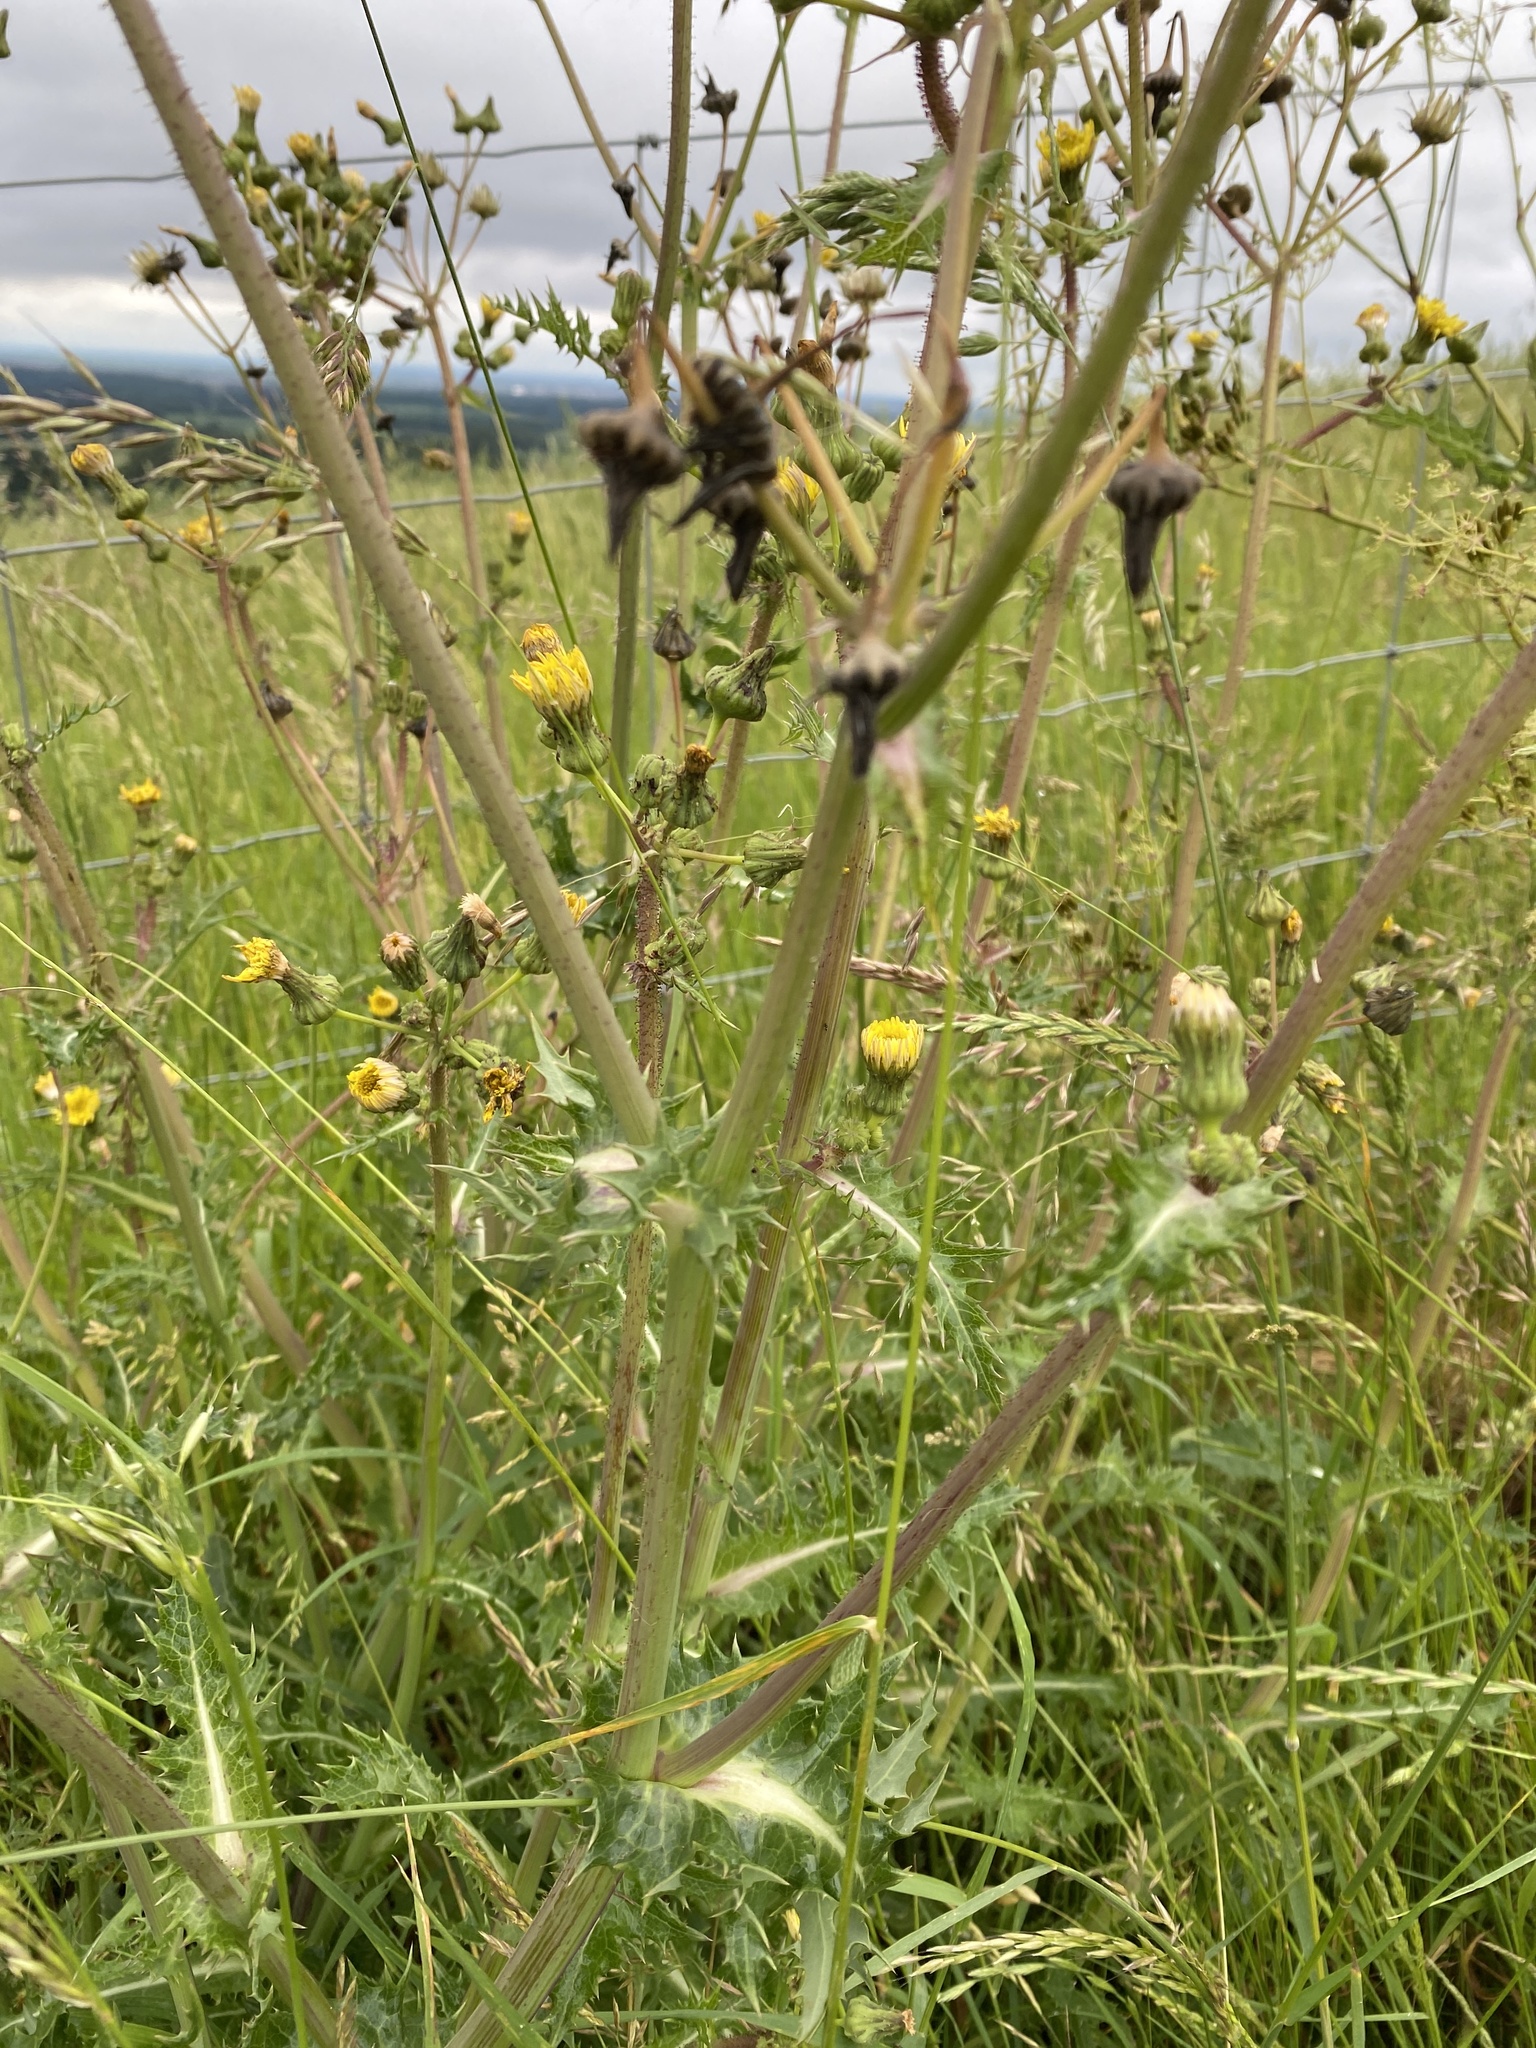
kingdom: Plantae
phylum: Tracheophyta
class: Magnoliopsida
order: Asterales
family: Asteraceae
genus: Sonchus
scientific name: Sonchus asper
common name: Prickly sow-thistle
